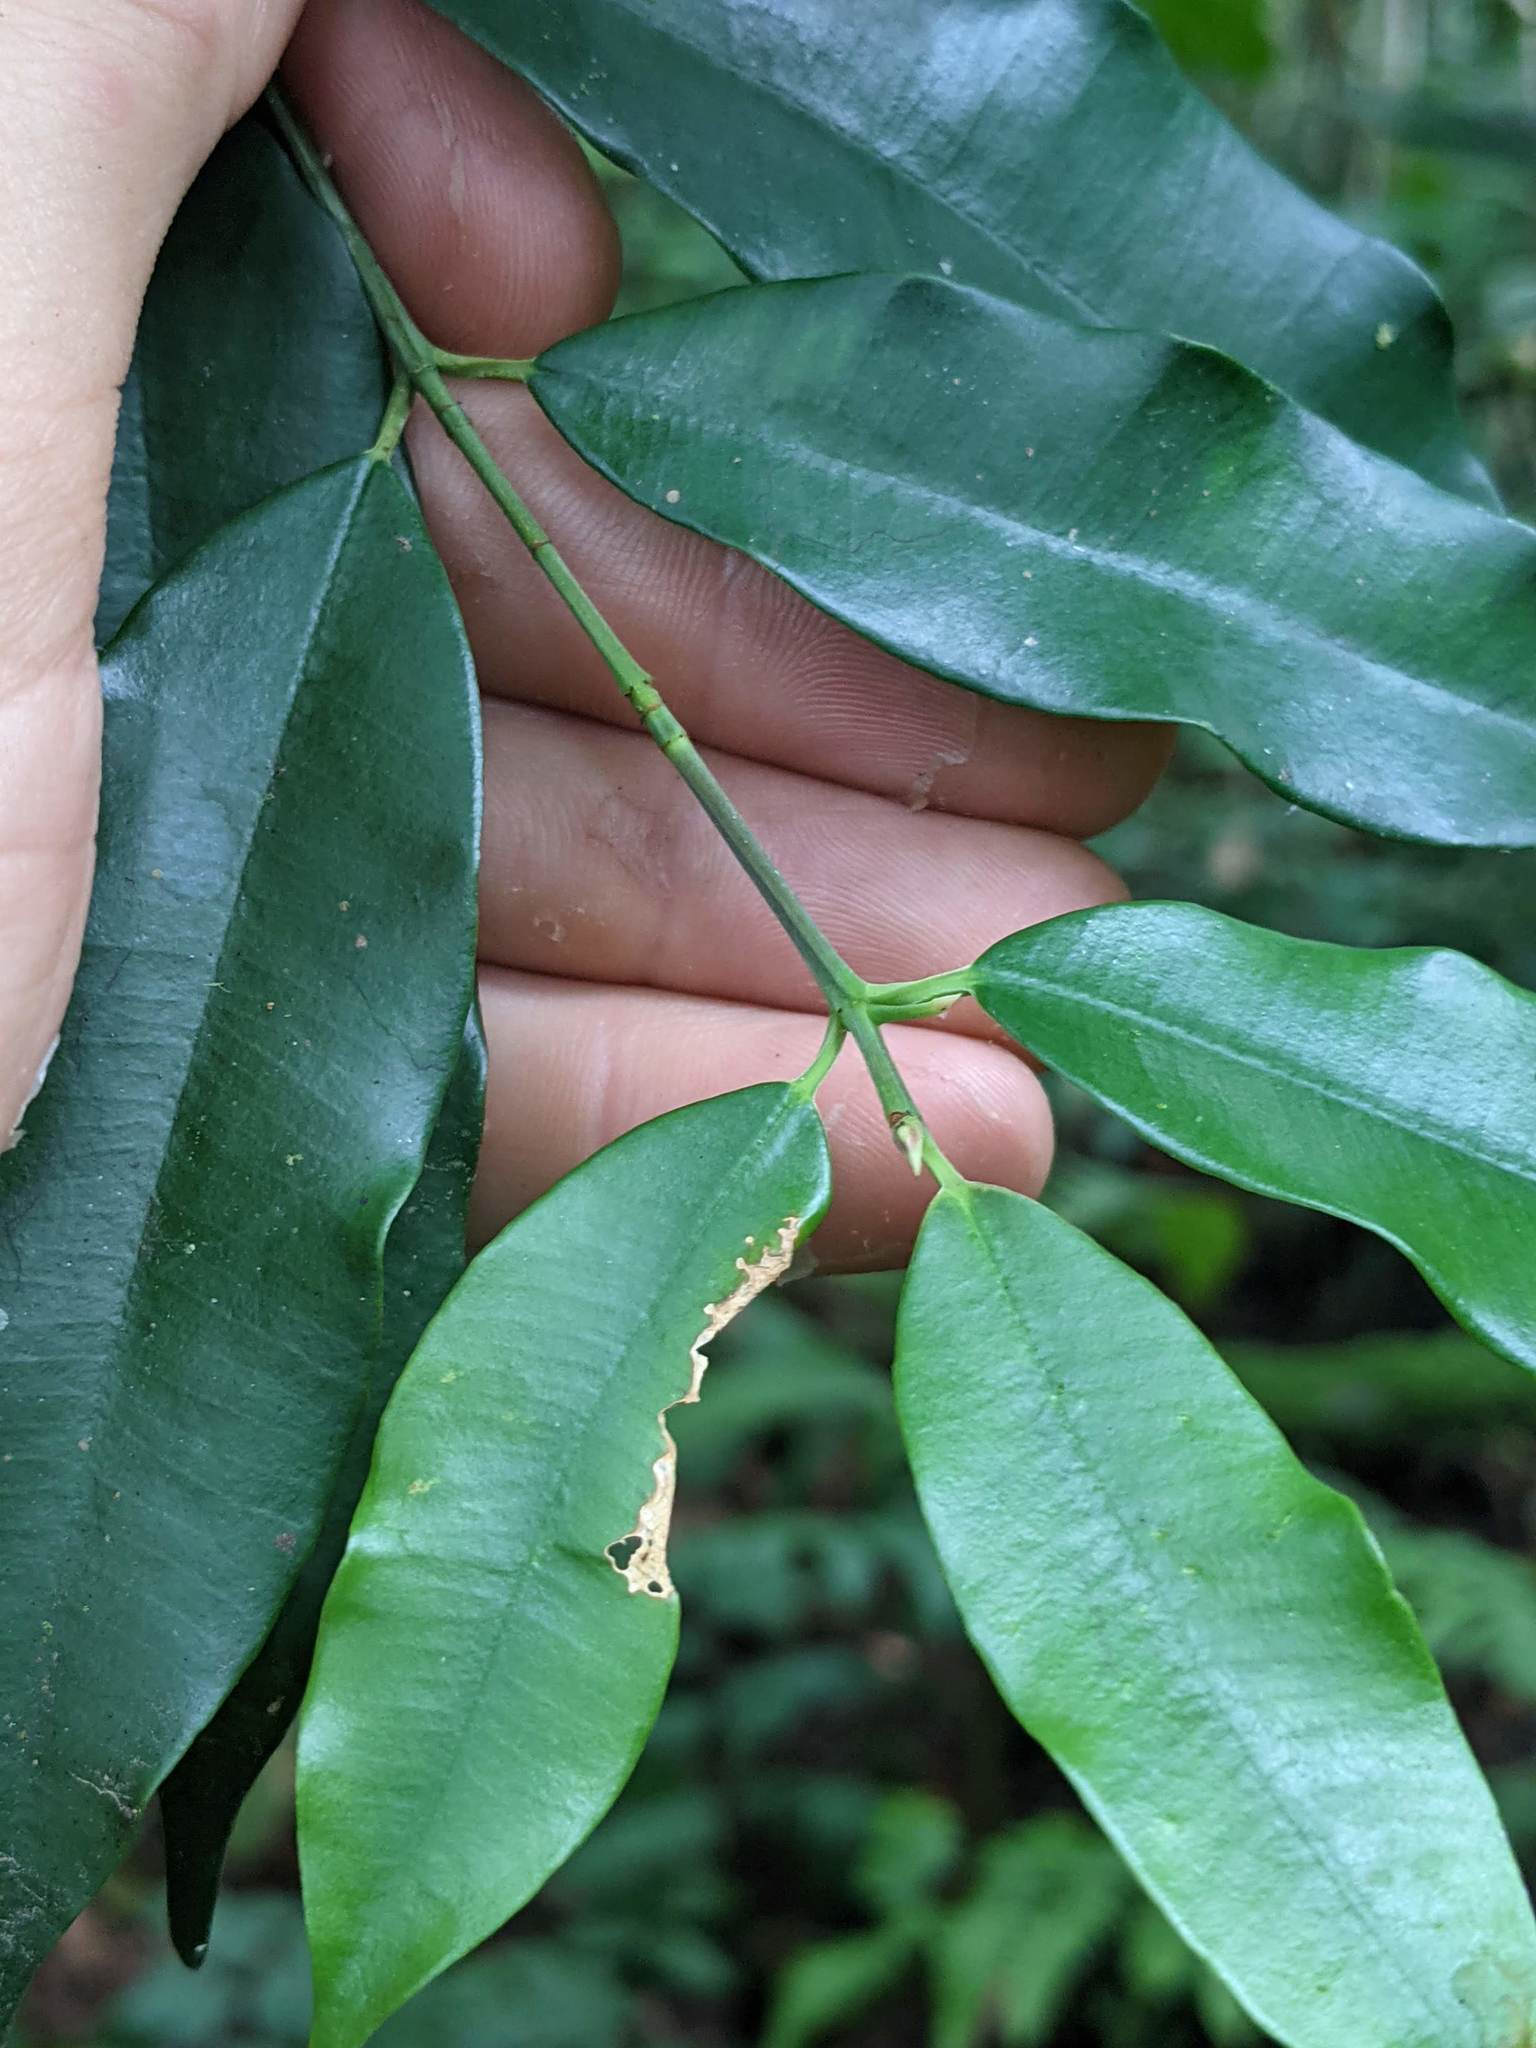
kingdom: Plantae
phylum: Tracheophyta
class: Magnoliopsida
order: Malpighiales
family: Clusiaceae
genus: Symphonia
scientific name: Symphonia globulifera
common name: Boarwood
